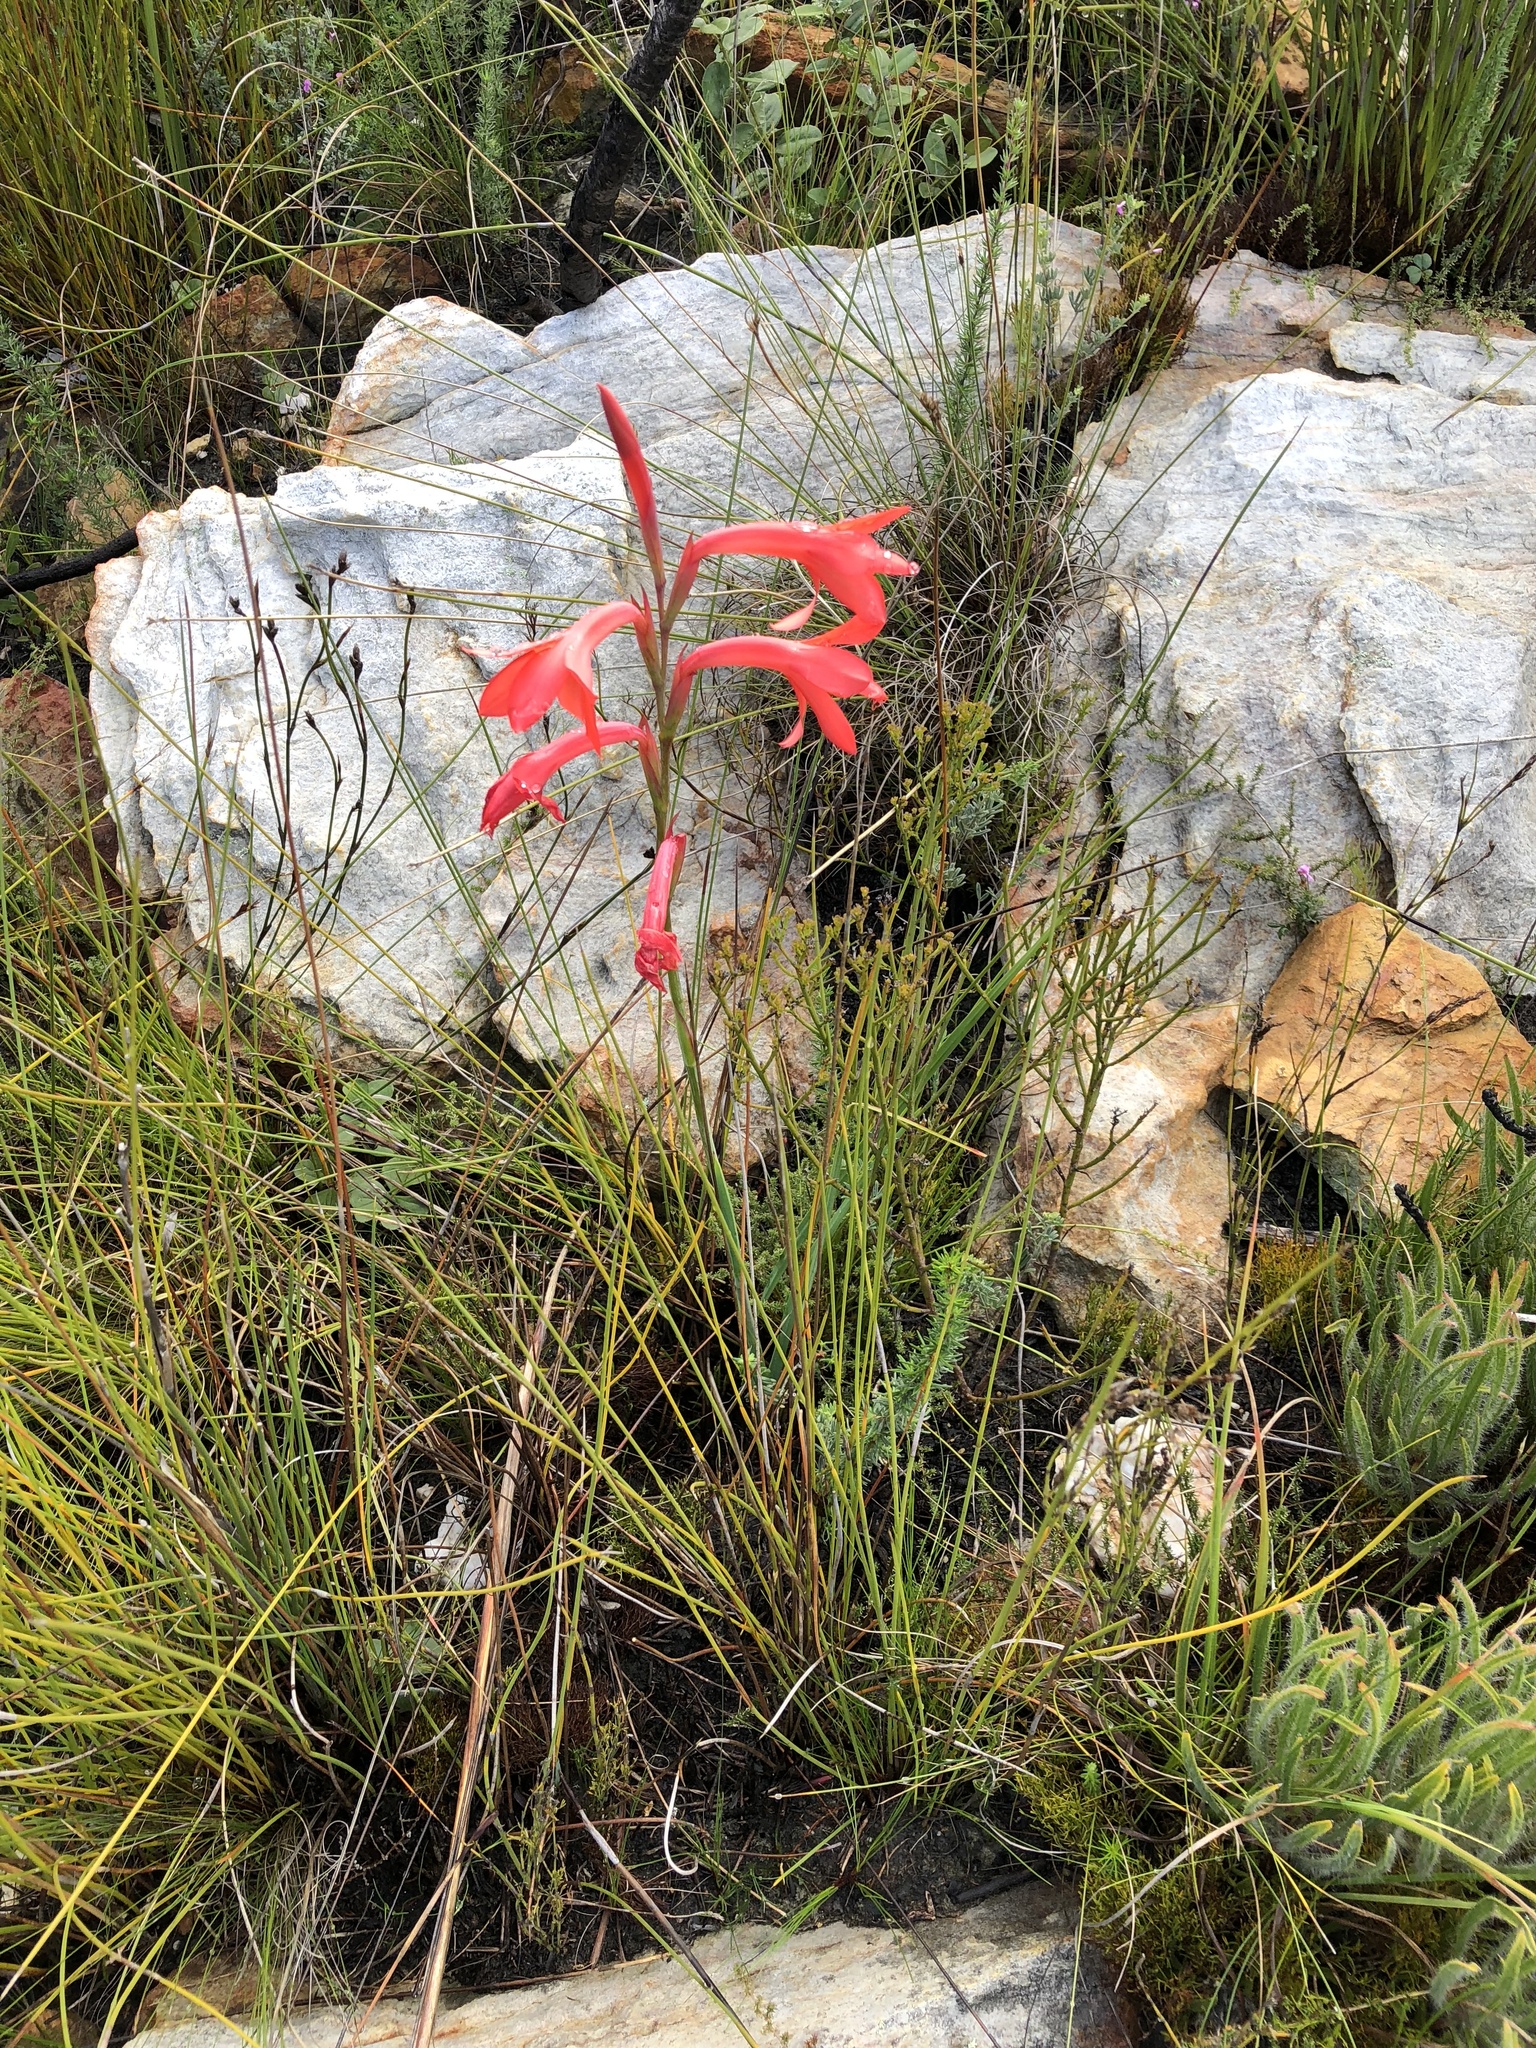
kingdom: Plantae
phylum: Tracheophyta
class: Liliopsida
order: Asparagales
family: Iridaceae
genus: Watsonia
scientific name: Watsonia spectabilis
